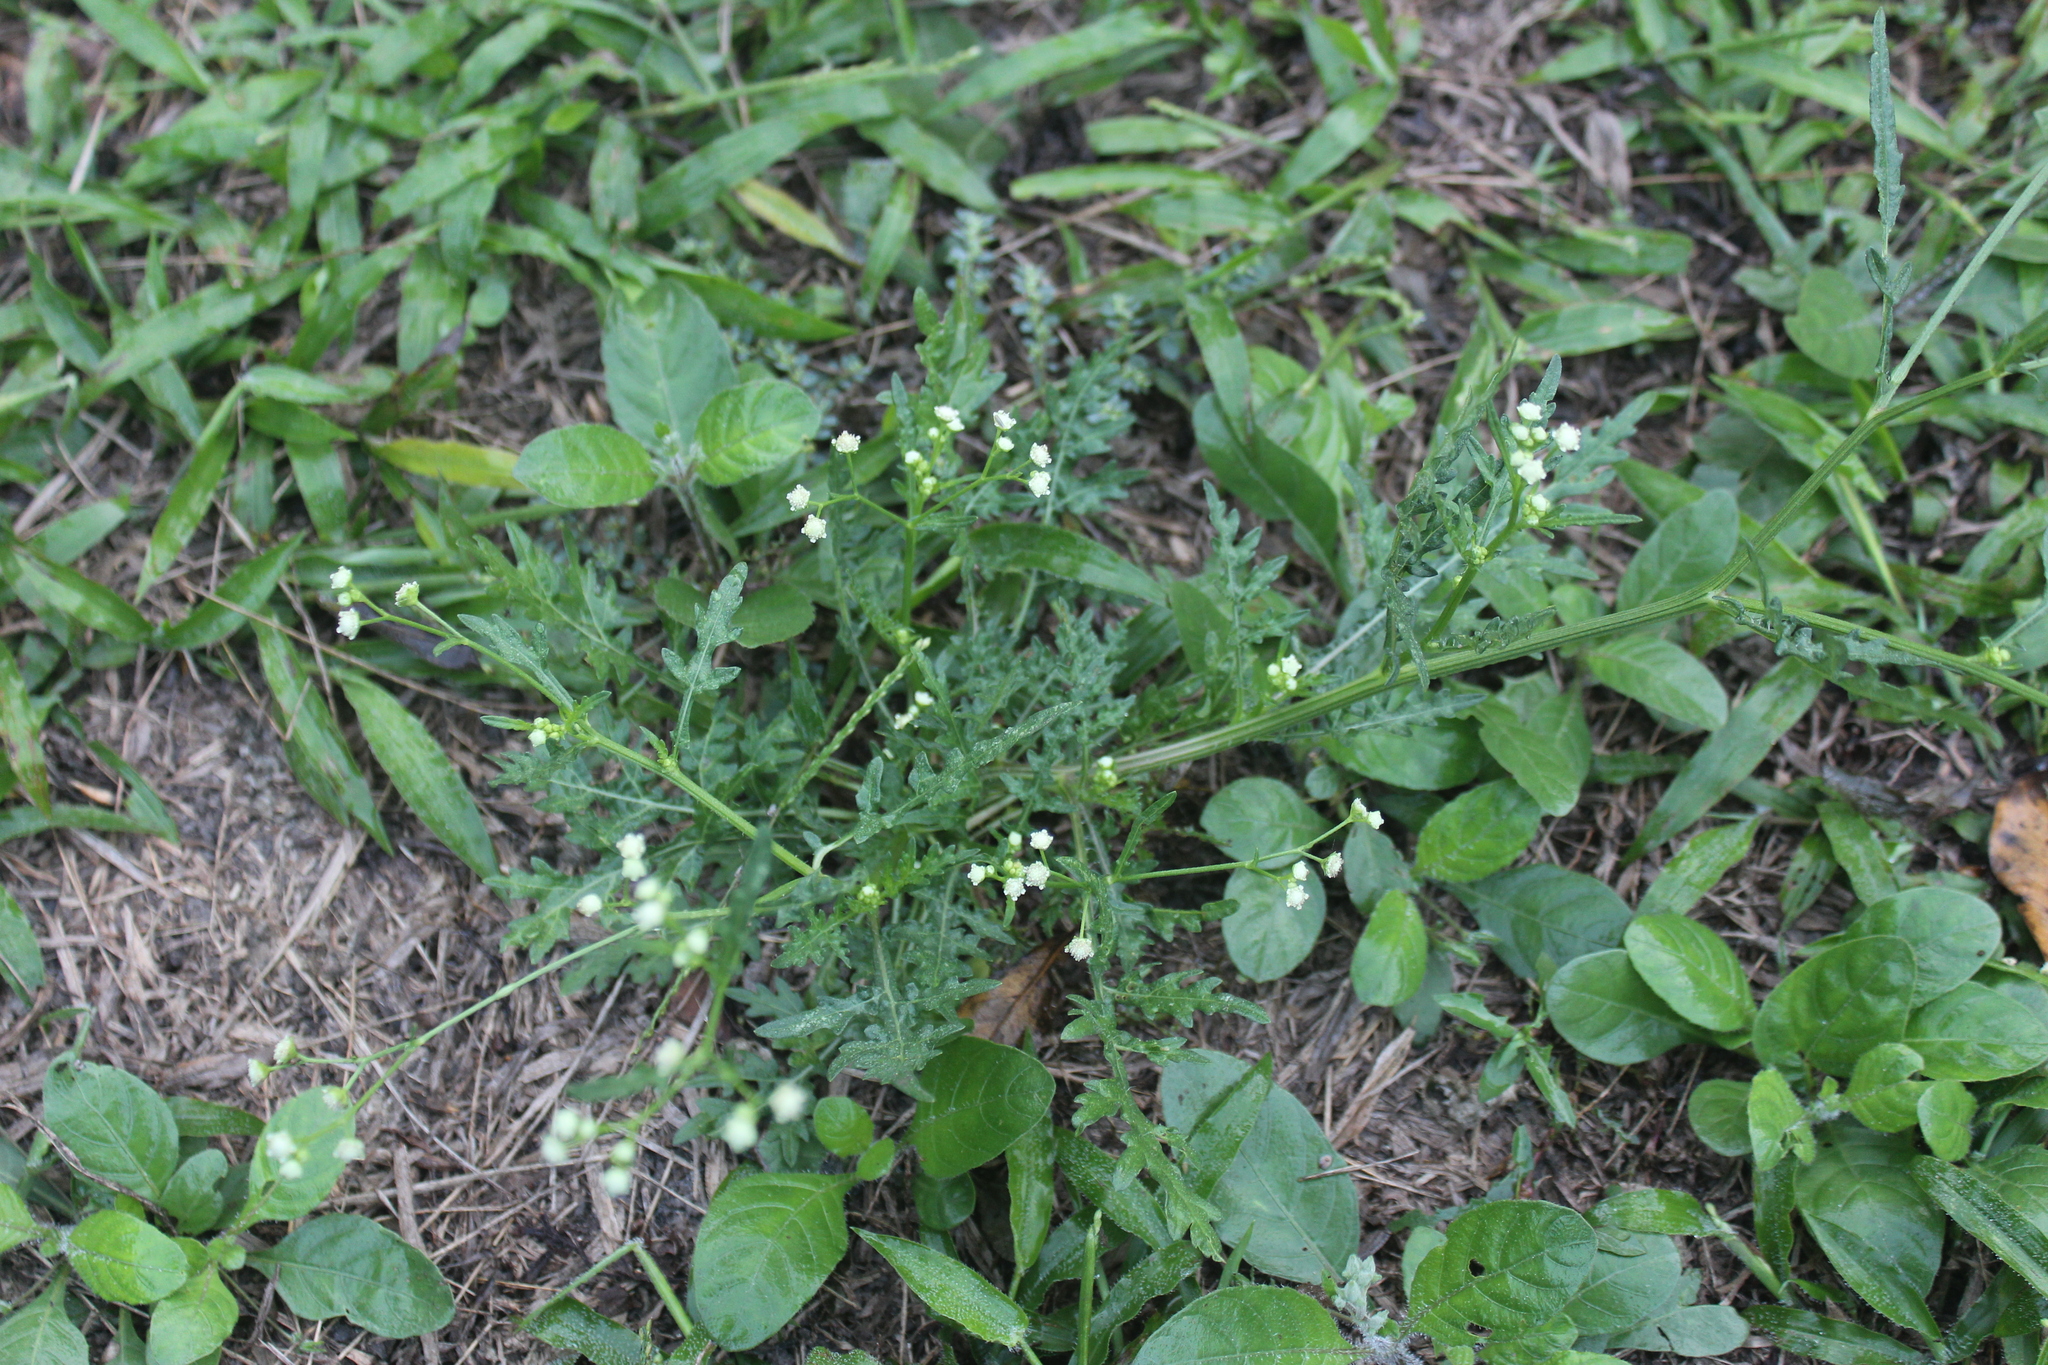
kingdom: Plantae
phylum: Tracheophyta
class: Magnoliopsida
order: Asterales
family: Asteraceae
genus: Parthenium
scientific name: Parthenium hysterophorus
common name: Santa maria feverfew
